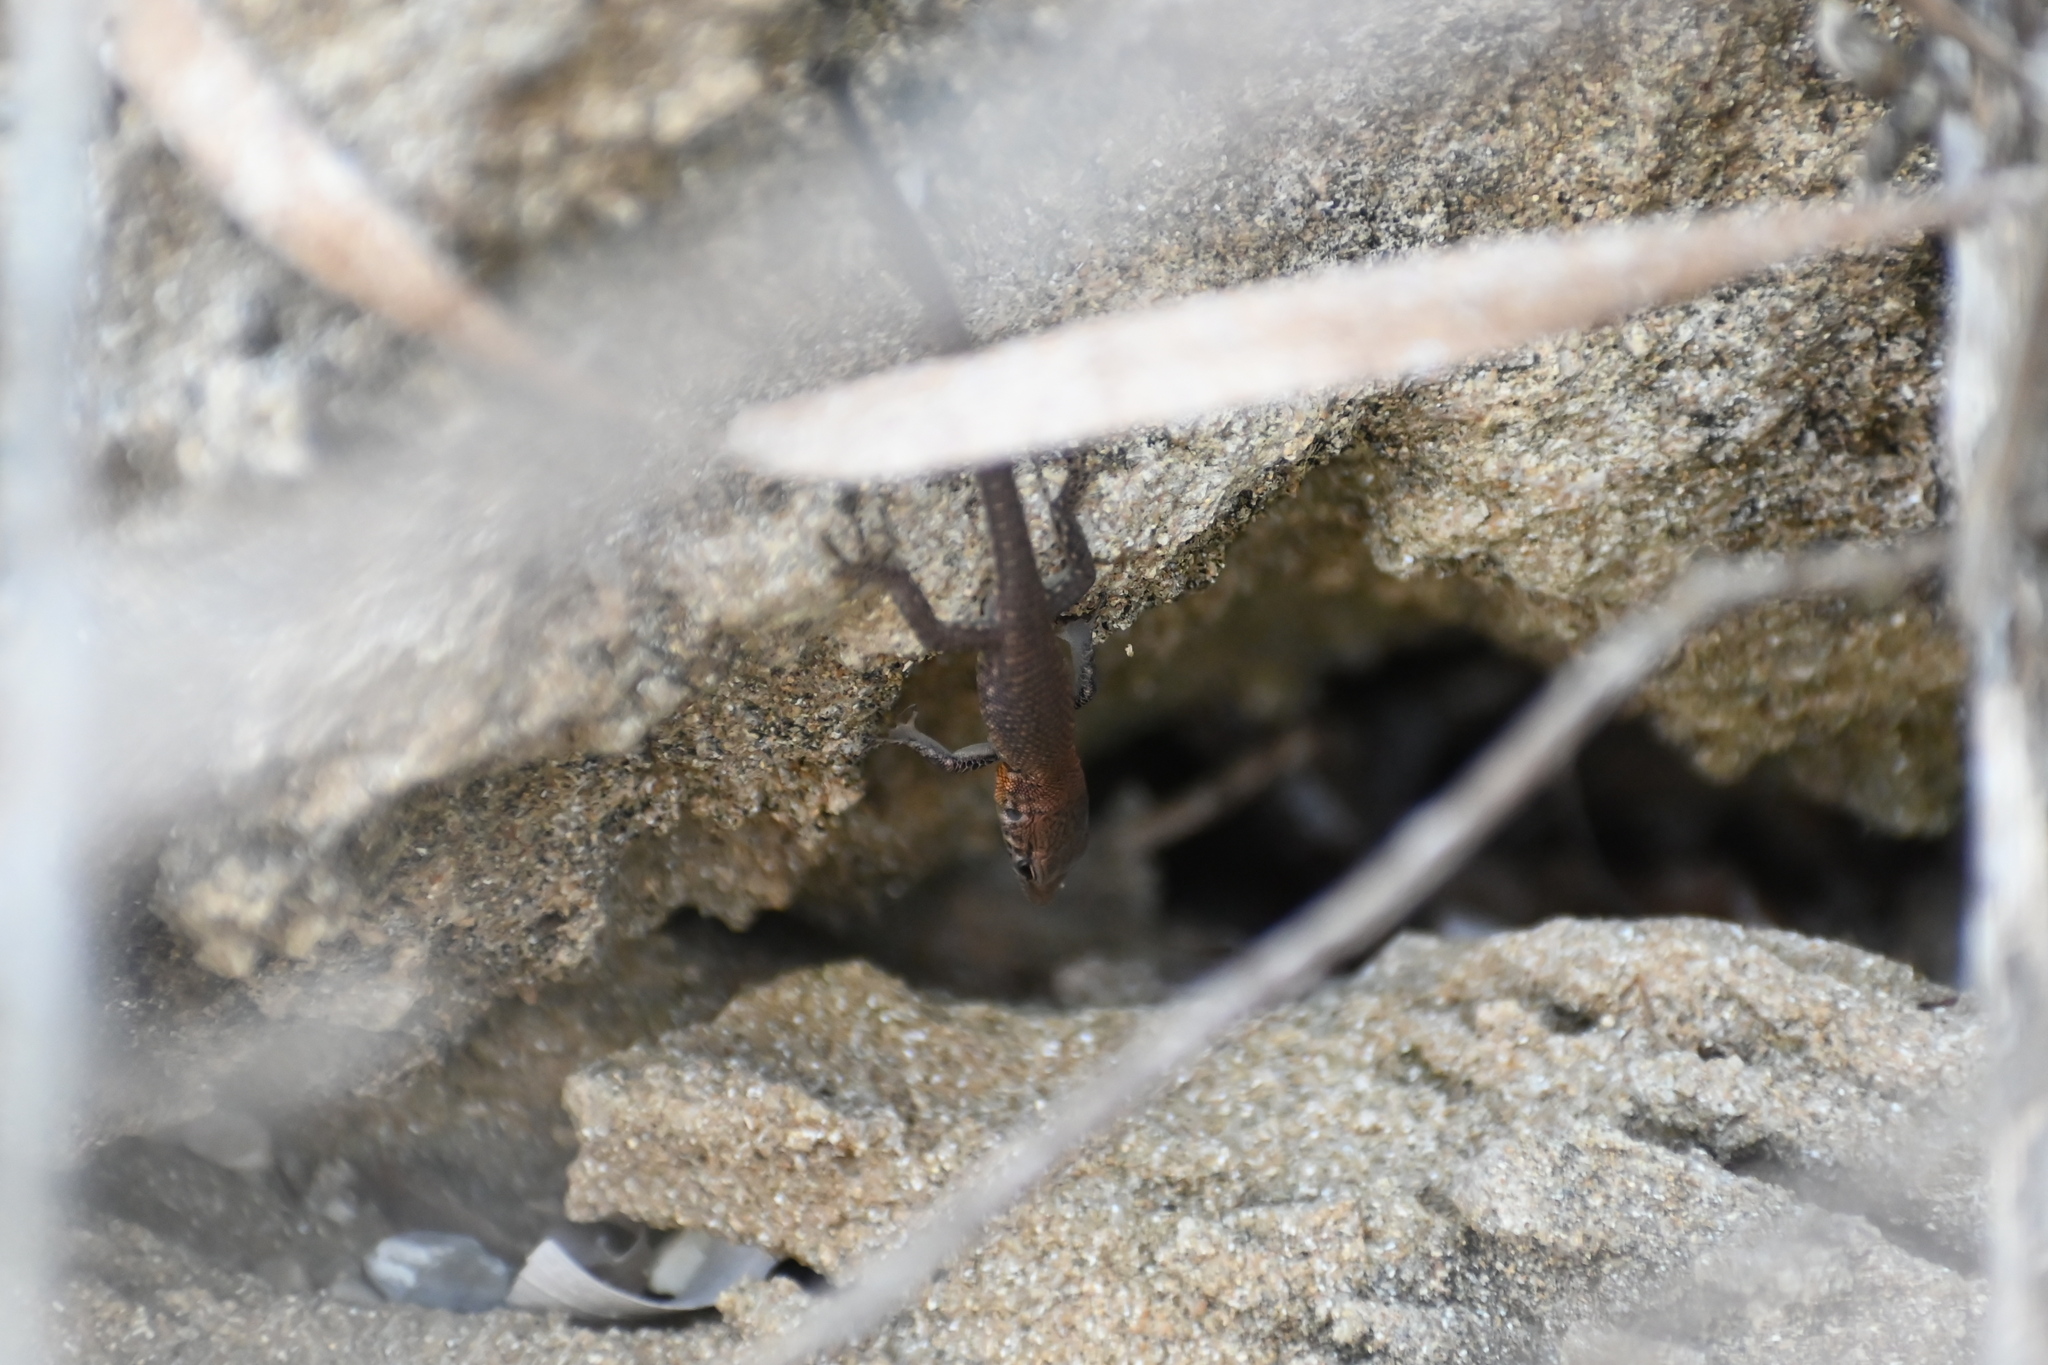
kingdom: Animalia
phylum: Chordata
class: Squamata
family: Lacertidae
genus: Algyroides
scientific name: Algyroides nigropunctatus
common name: Blue-throated keeled lizard
